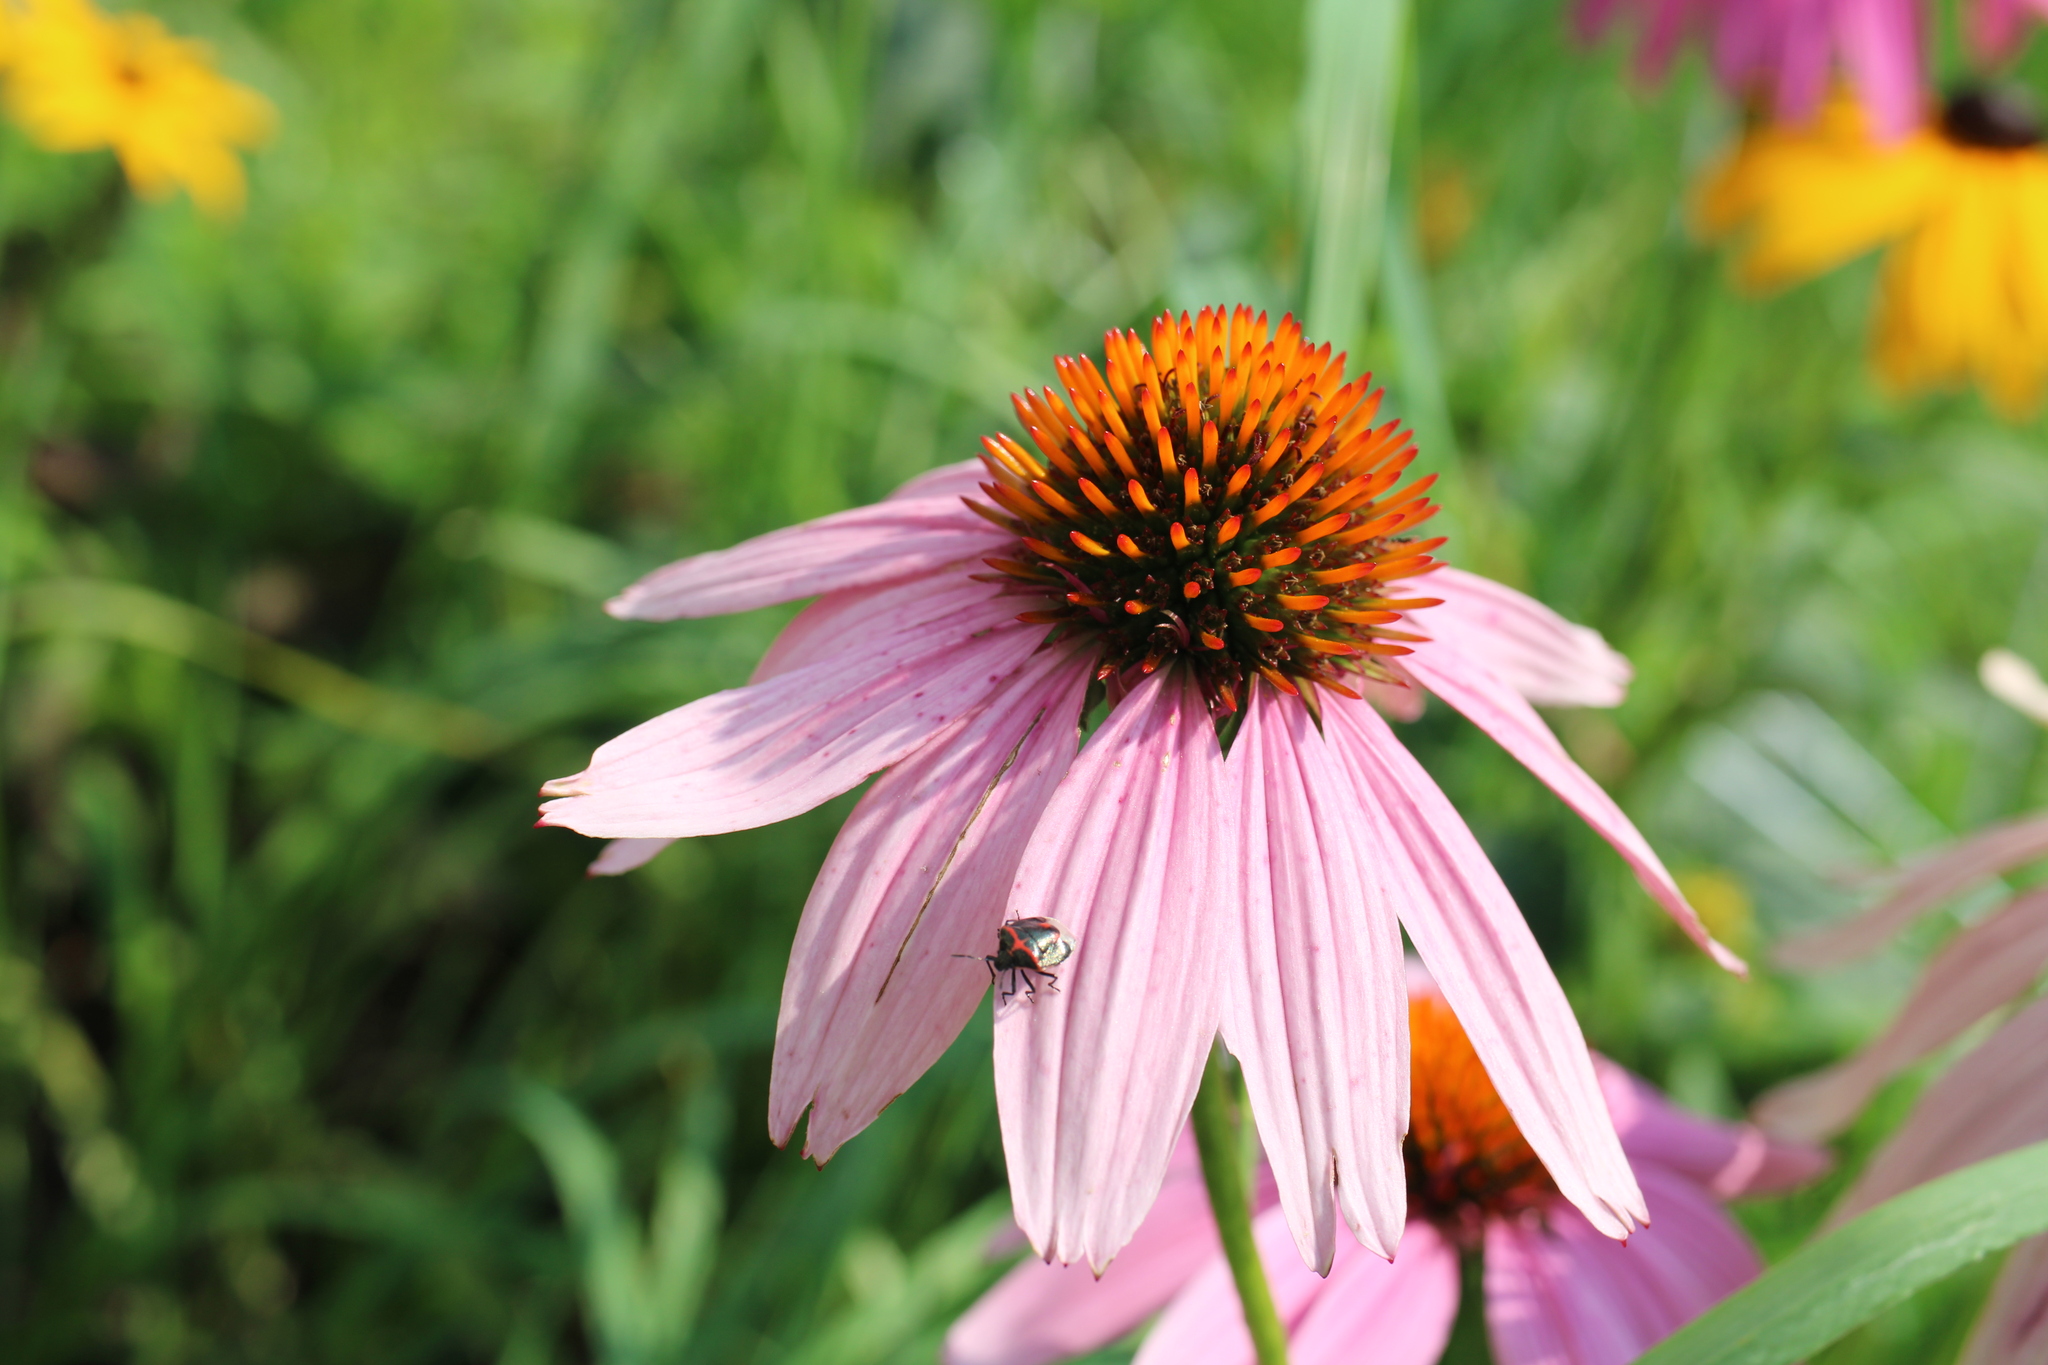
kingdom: Animalia
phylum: Arthropoda
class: Insecta
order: Hemiptera
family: Pentatomidae
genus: Cosmopepla
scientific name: Cosmopepla lintneriana
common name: Twice-stabbed stink bug
